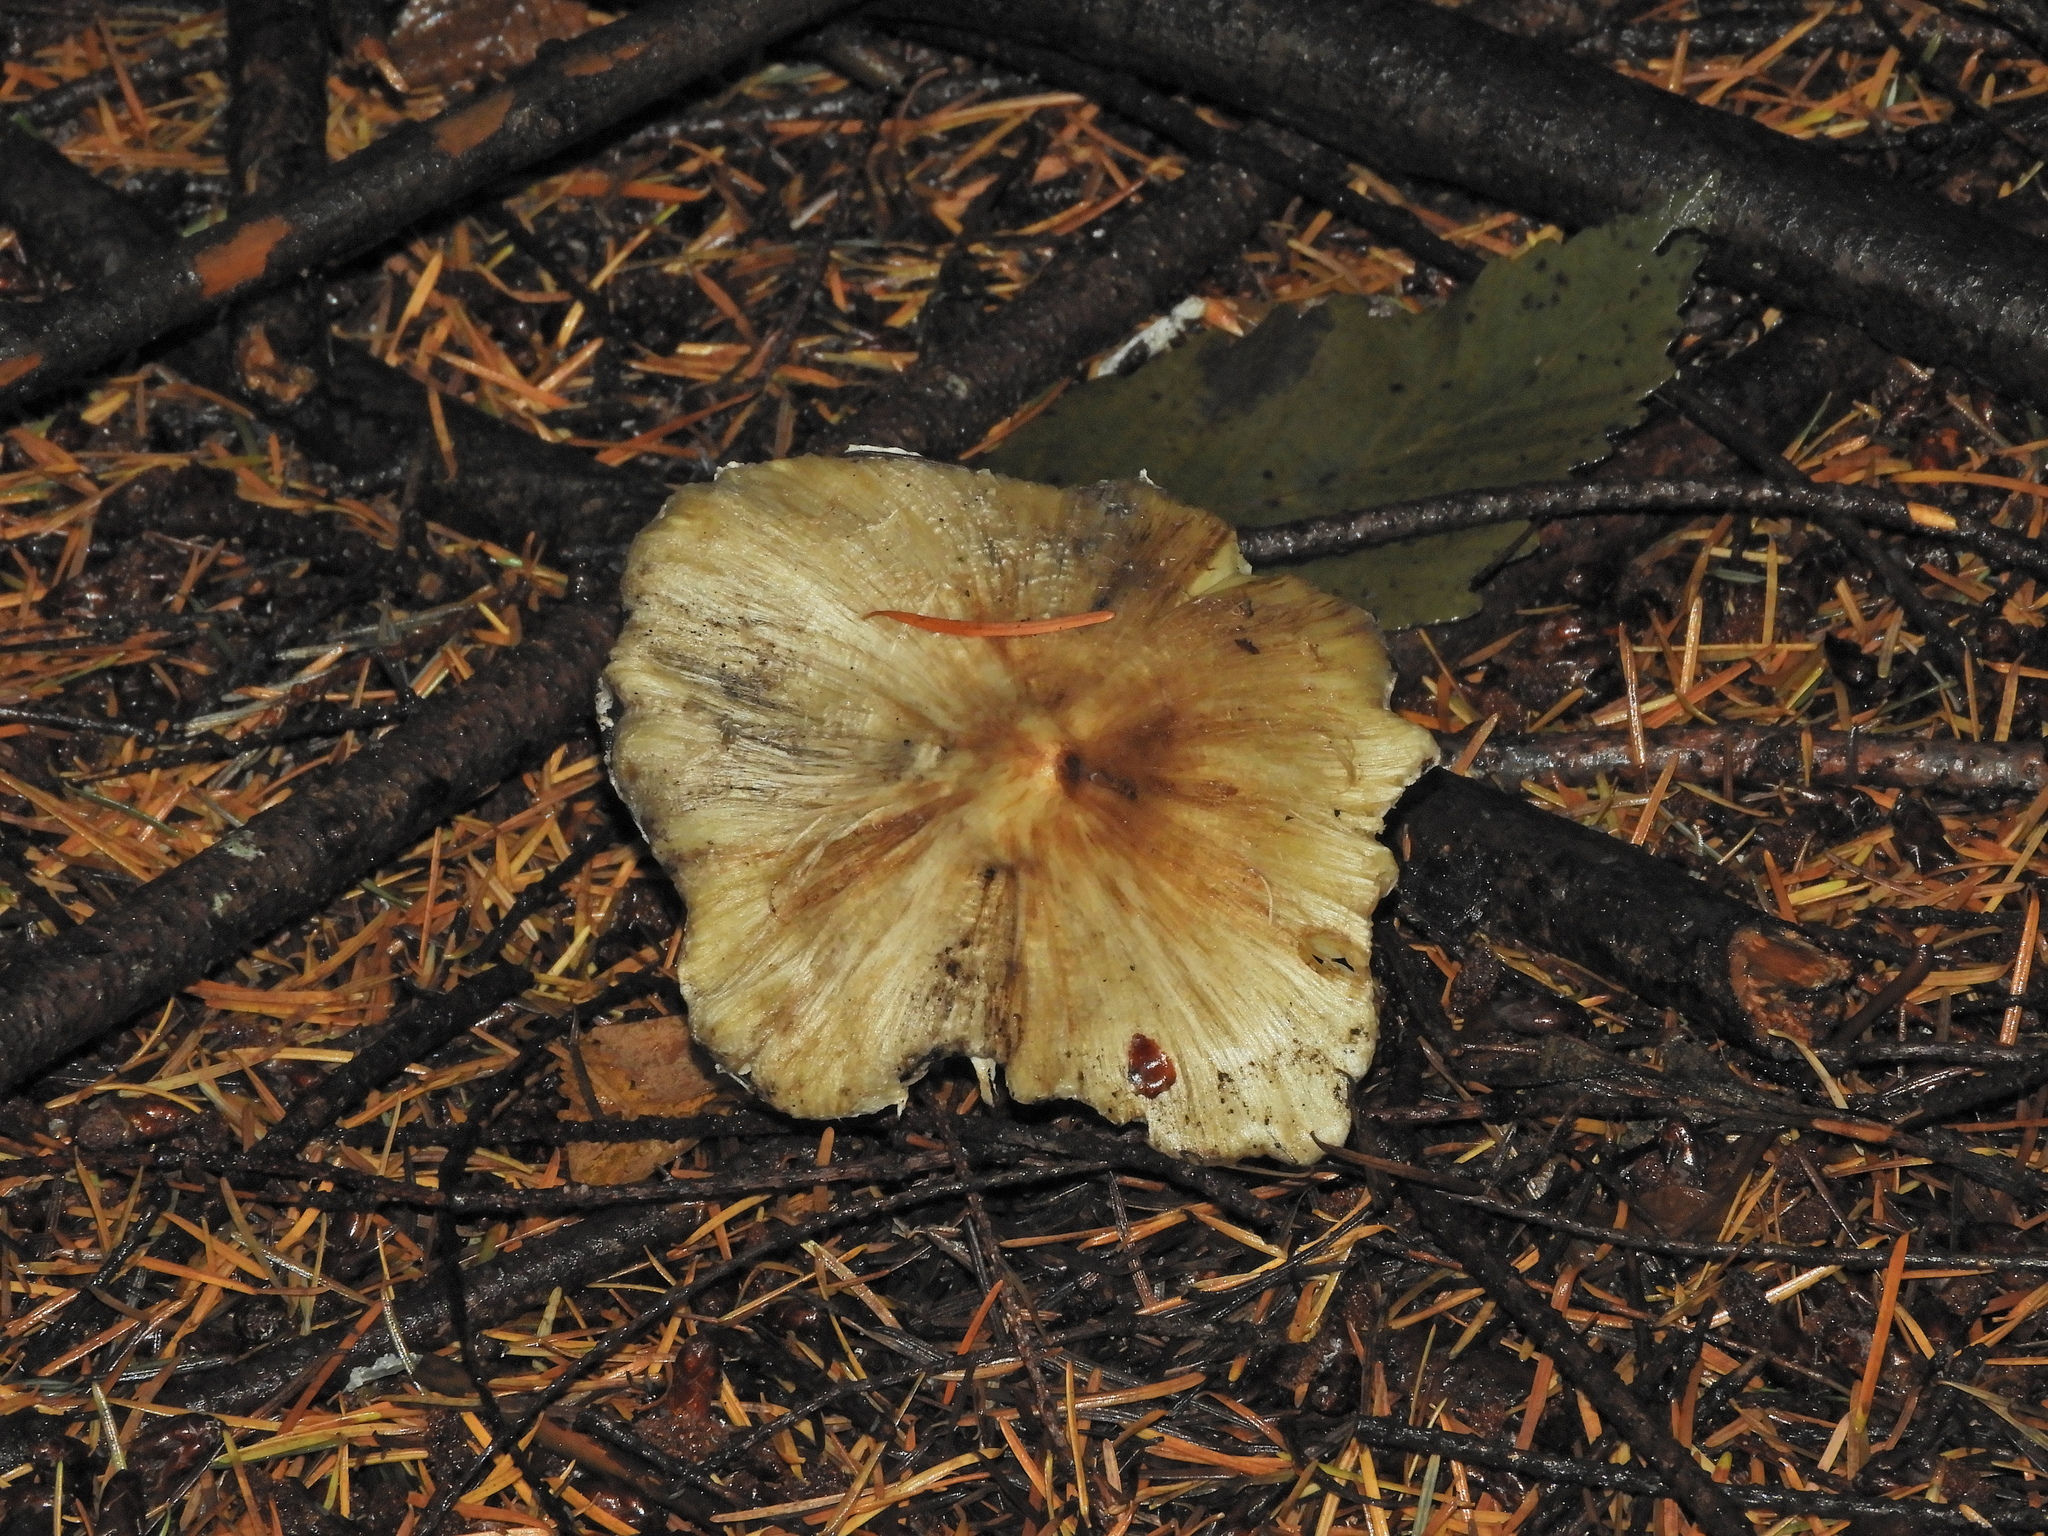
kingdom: Fungi
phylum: Basidiomycota
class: Agaricomycetes
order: Agaricales
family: Inocybaceae
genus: Pseudosperma
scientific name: Pseudosperma sororium
